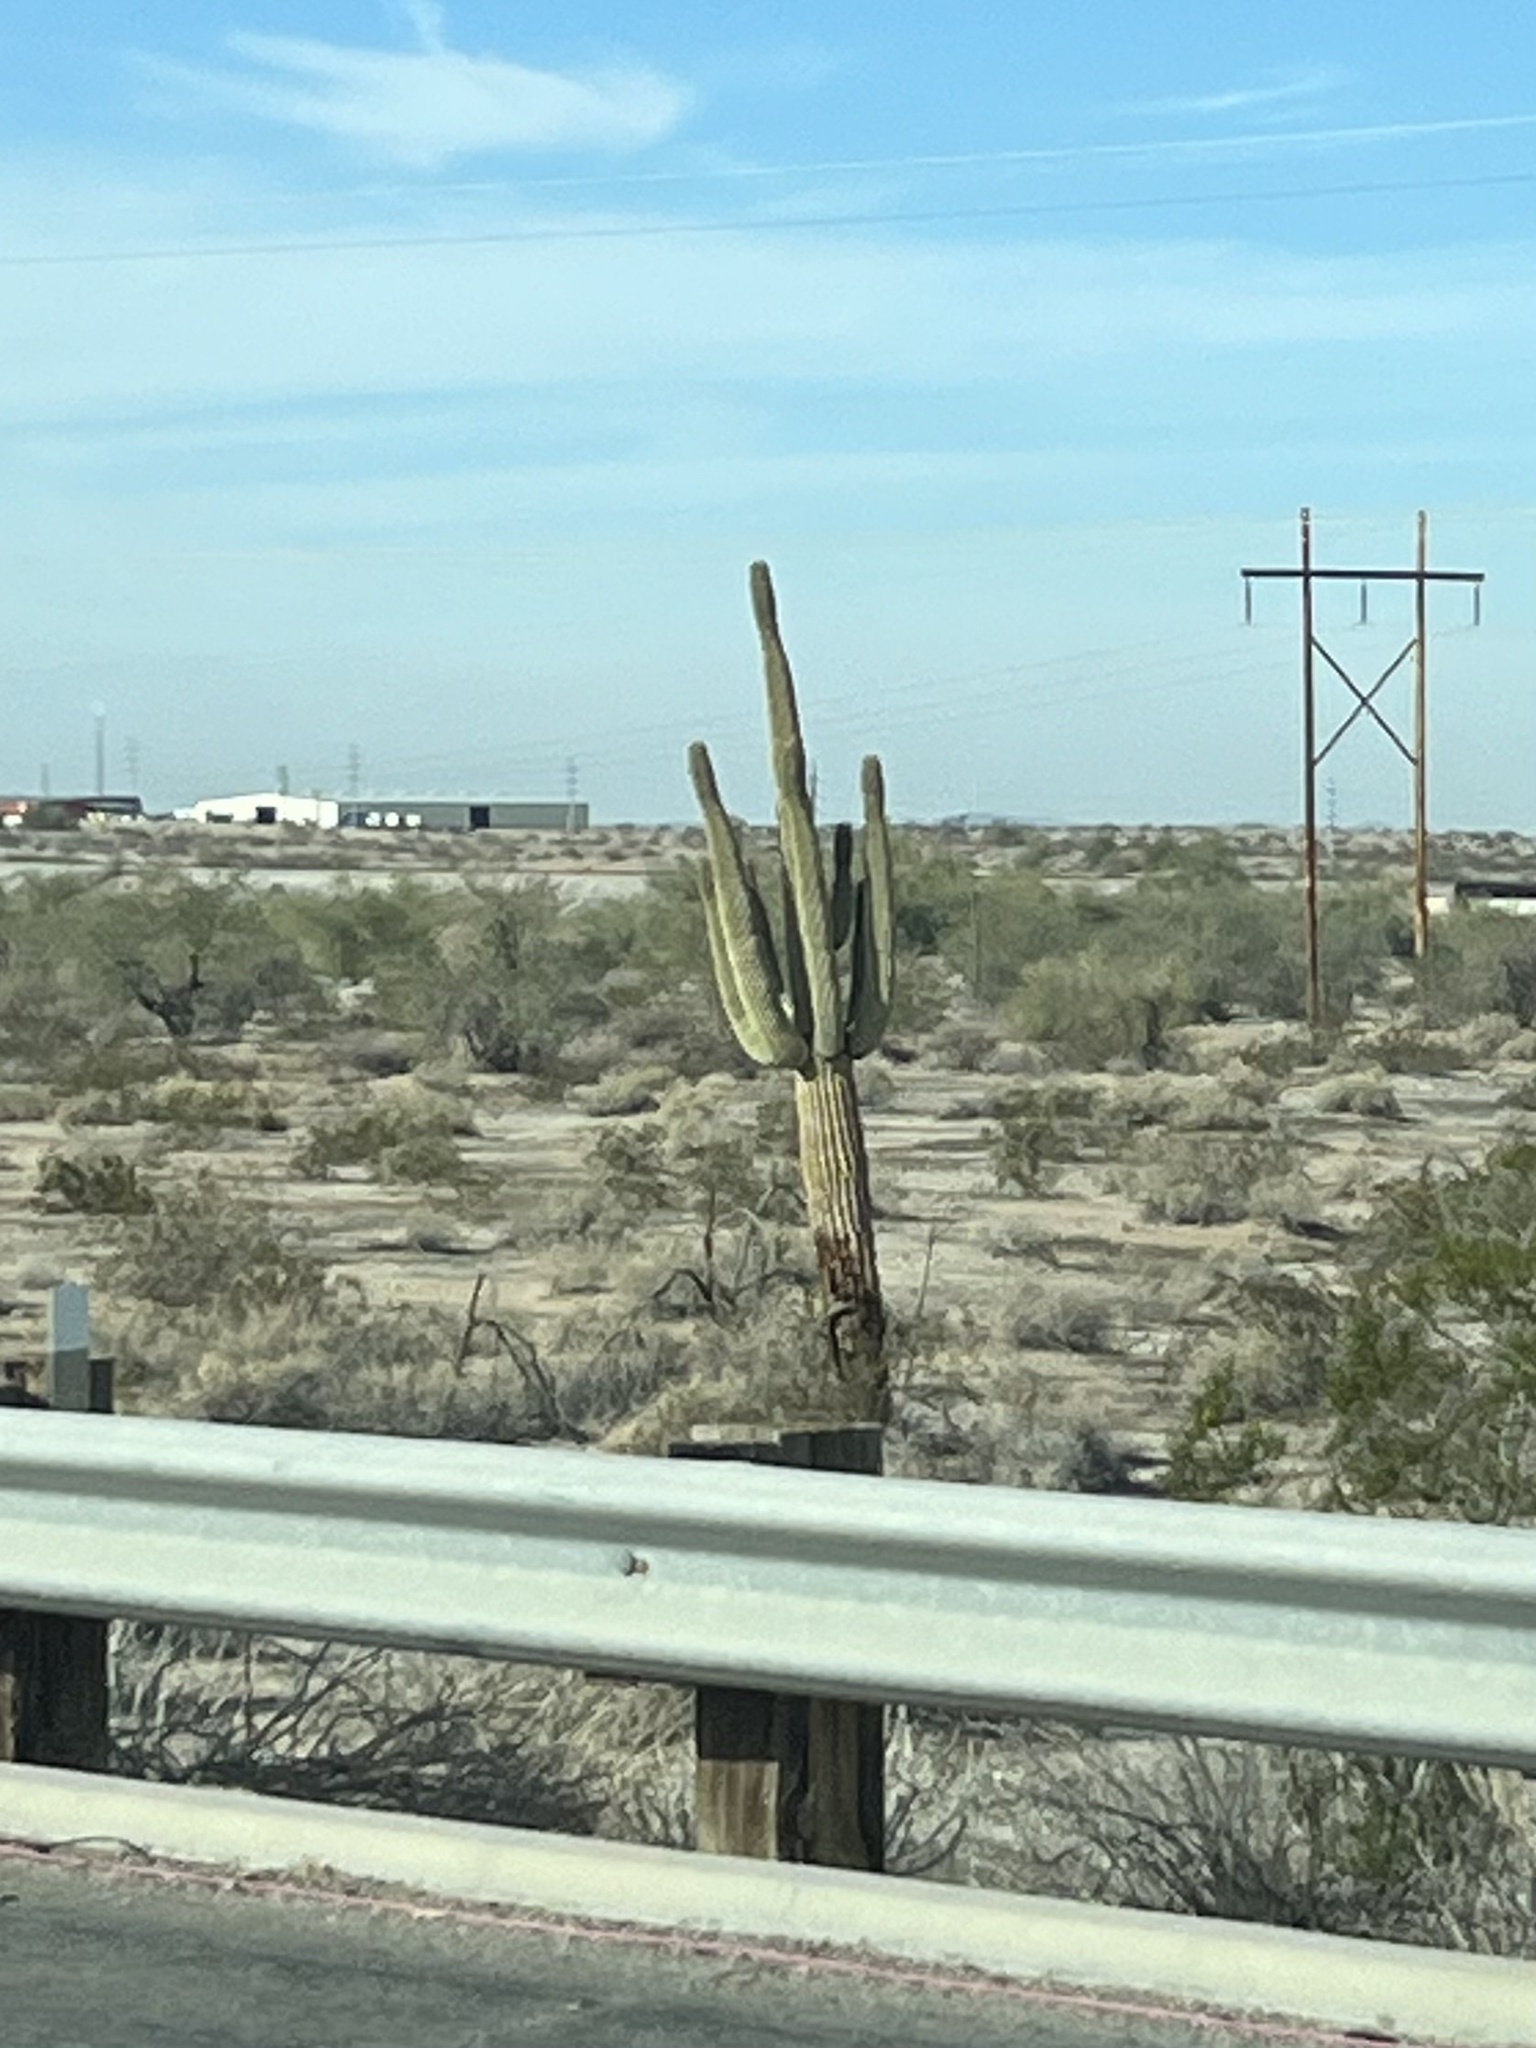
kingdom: Plantae
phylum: Tracheophyta
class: Magnoliopsida
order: Caryophyllales
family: Cactaceae
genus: Carnegiea
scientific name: Carnegiea gigantea
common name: Saguaro
